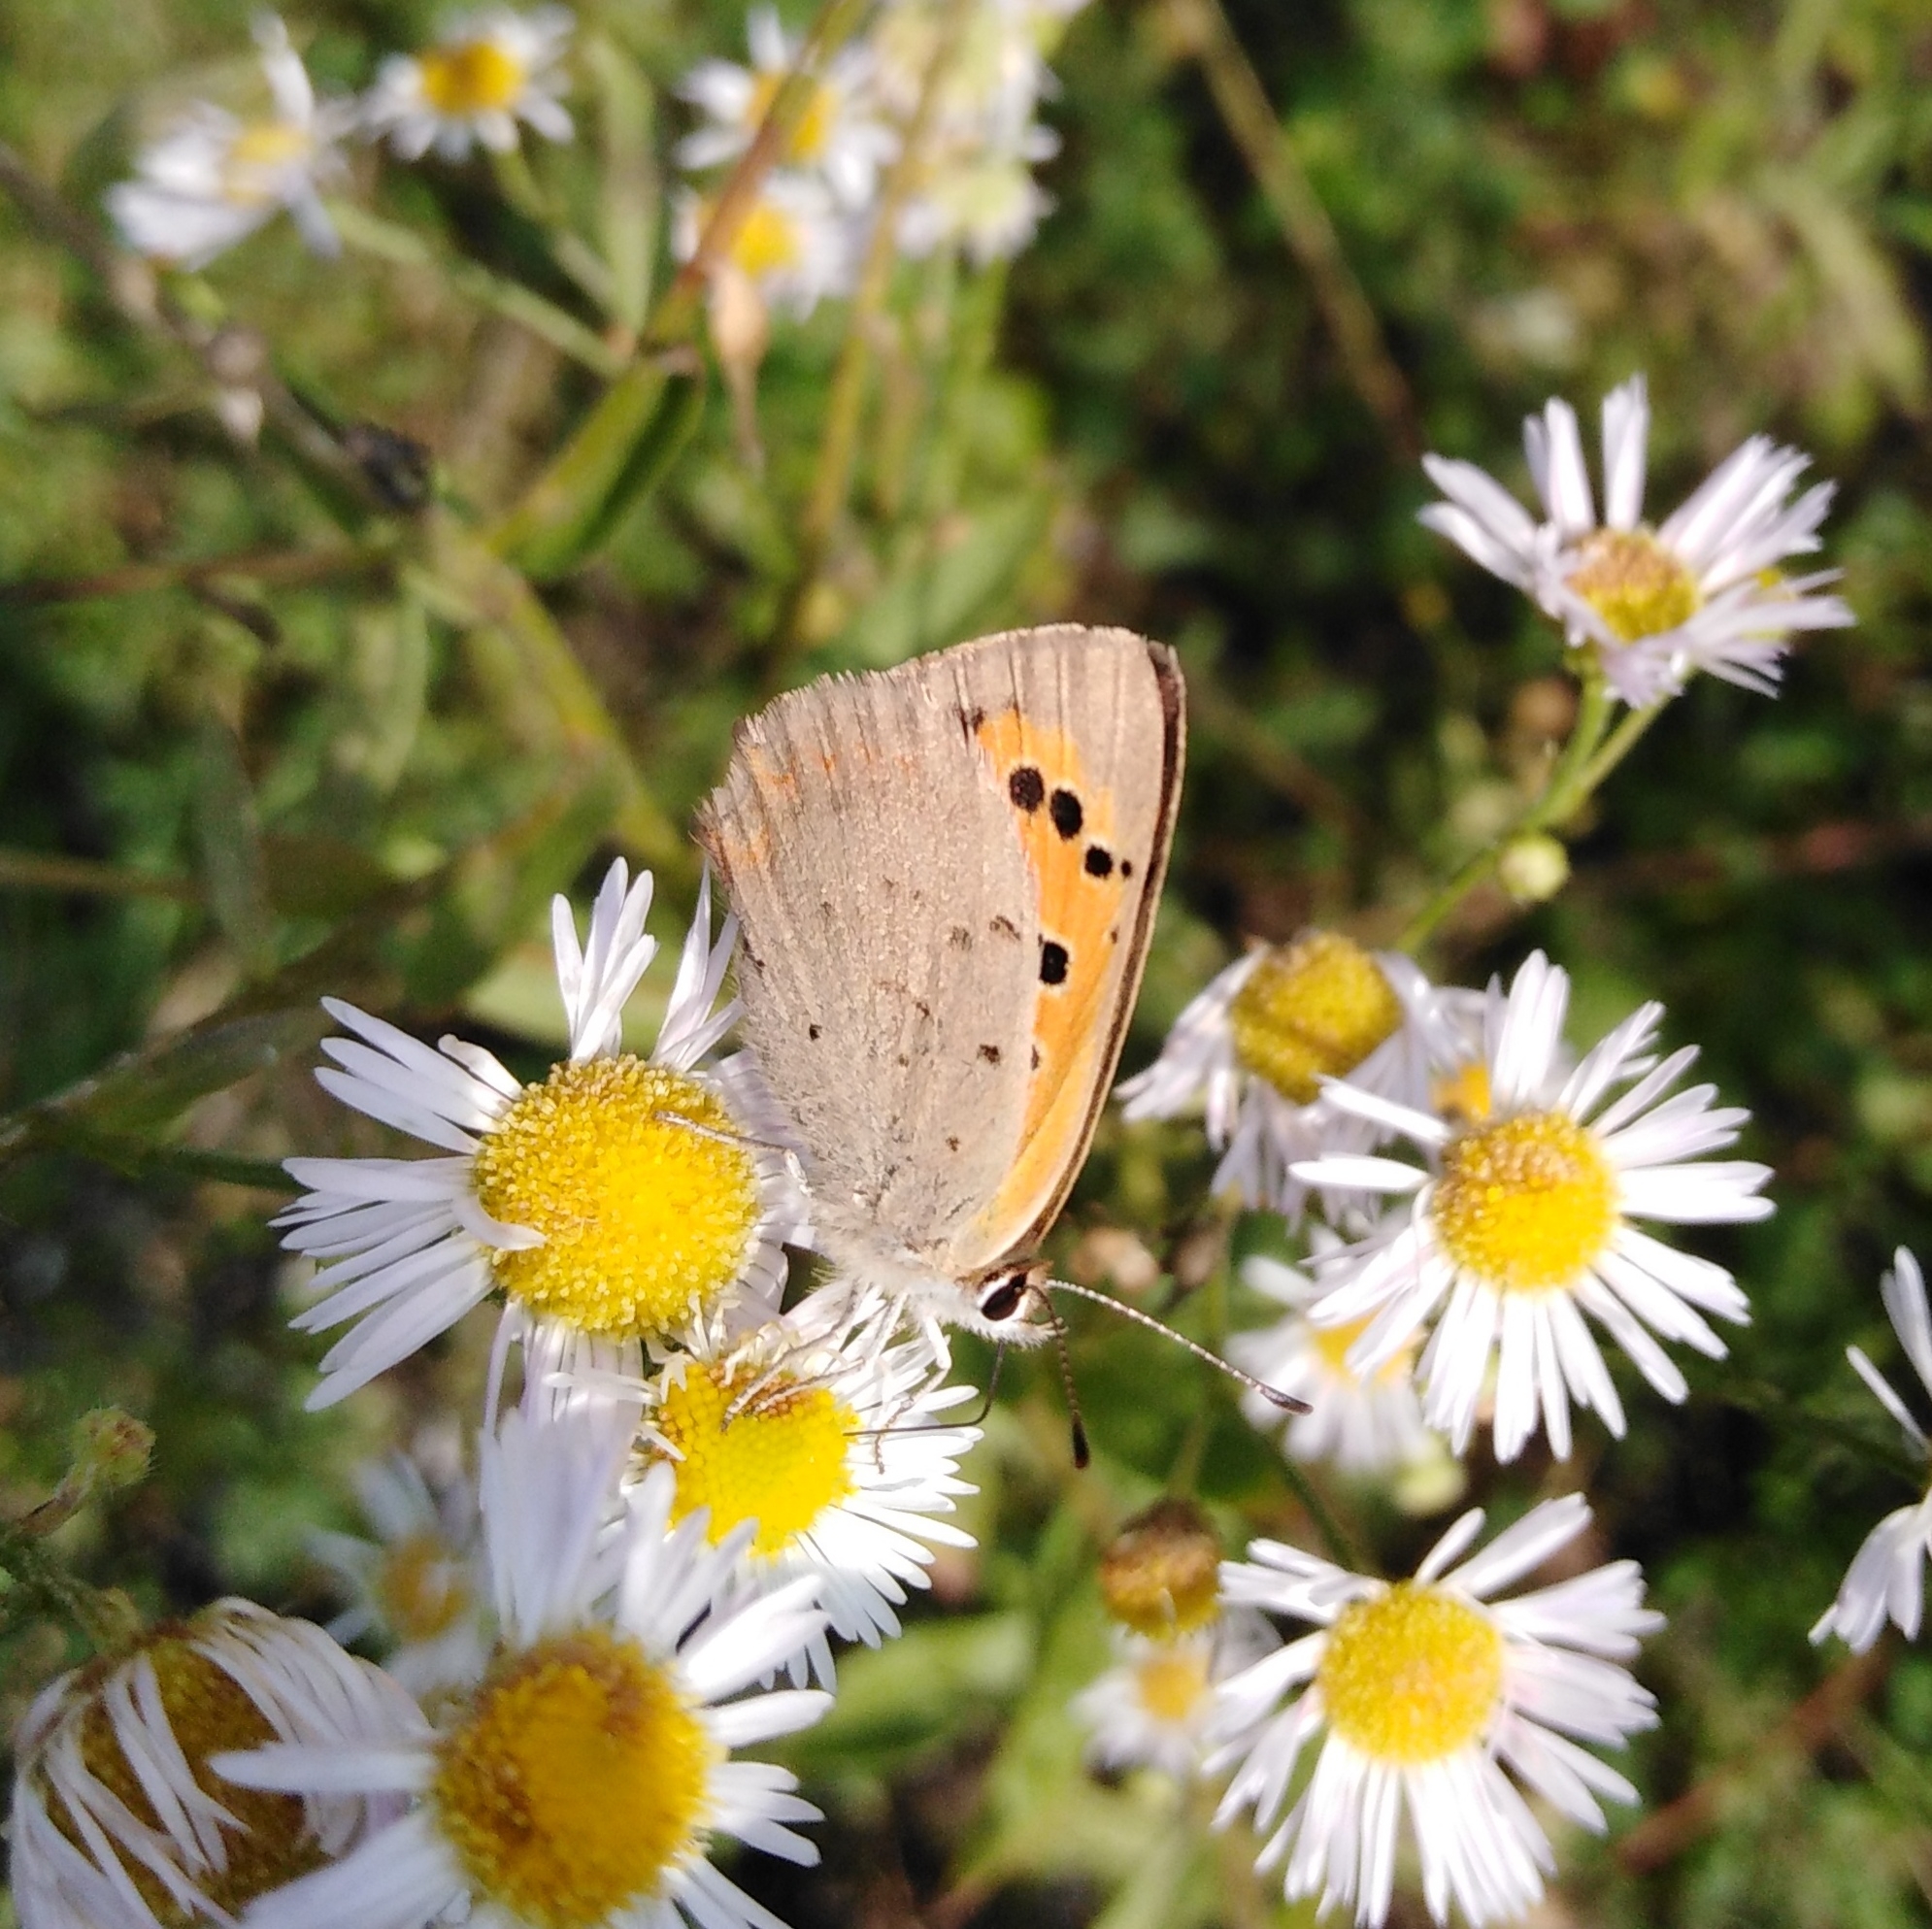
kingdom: Animalia
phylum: Arthropoda
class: Insecta
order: Lepidoptera
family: Lycaenidae
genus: Lycaena
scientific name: Lycaena phlaeas
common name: Small copper
